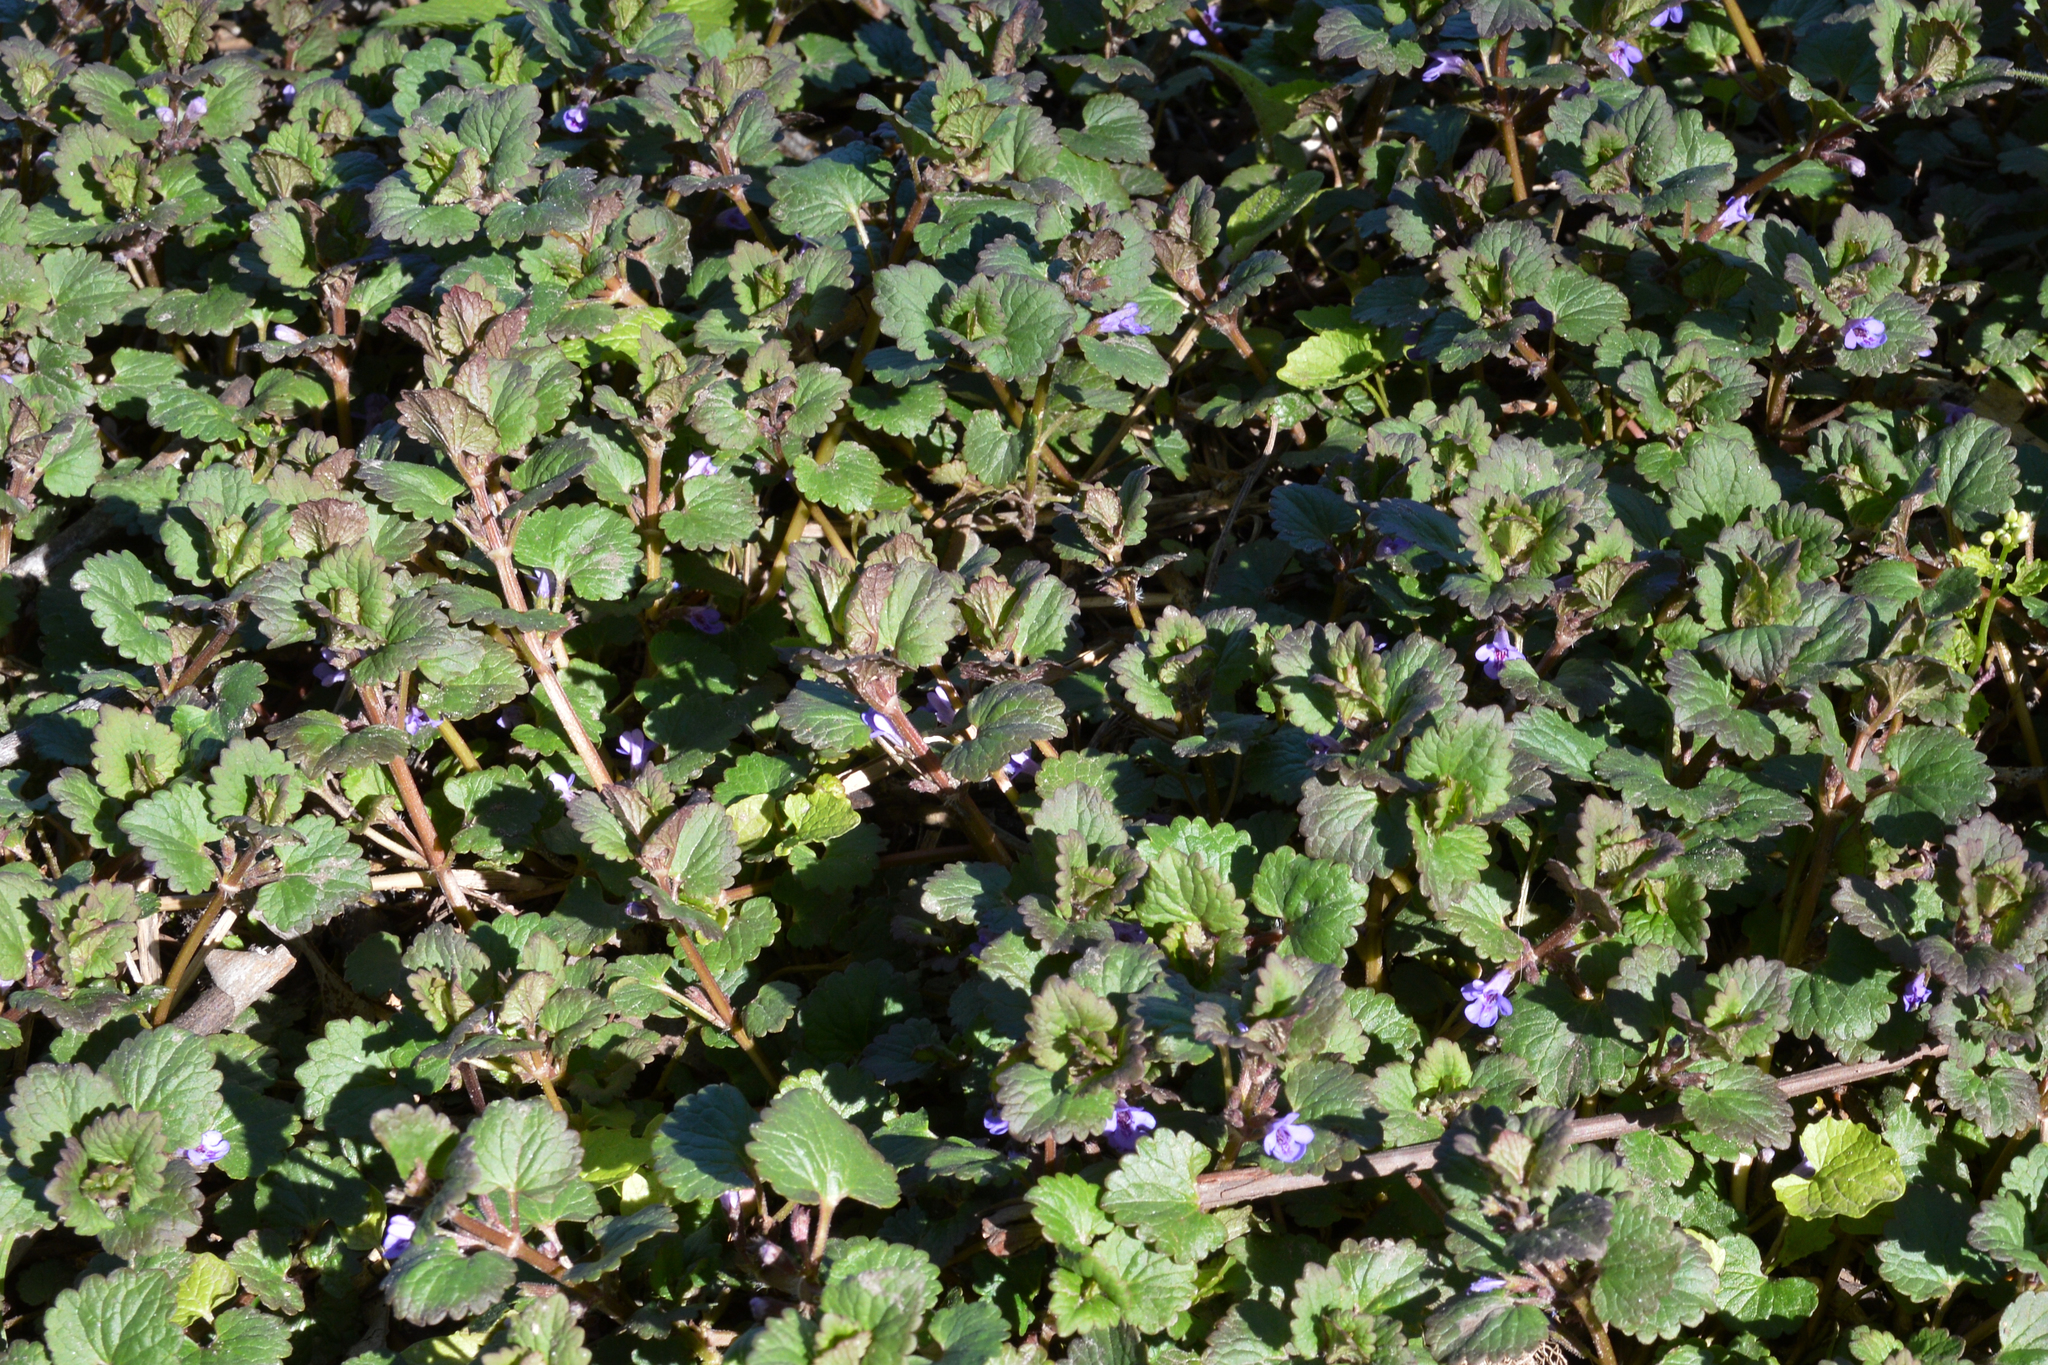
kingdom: Plantae
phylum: Tracheophyta
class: Magnoliopsida
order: Lamiales
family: Lamiaceae
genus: Glechoma
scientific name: Glechoma hederacea
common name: Ground ivy
